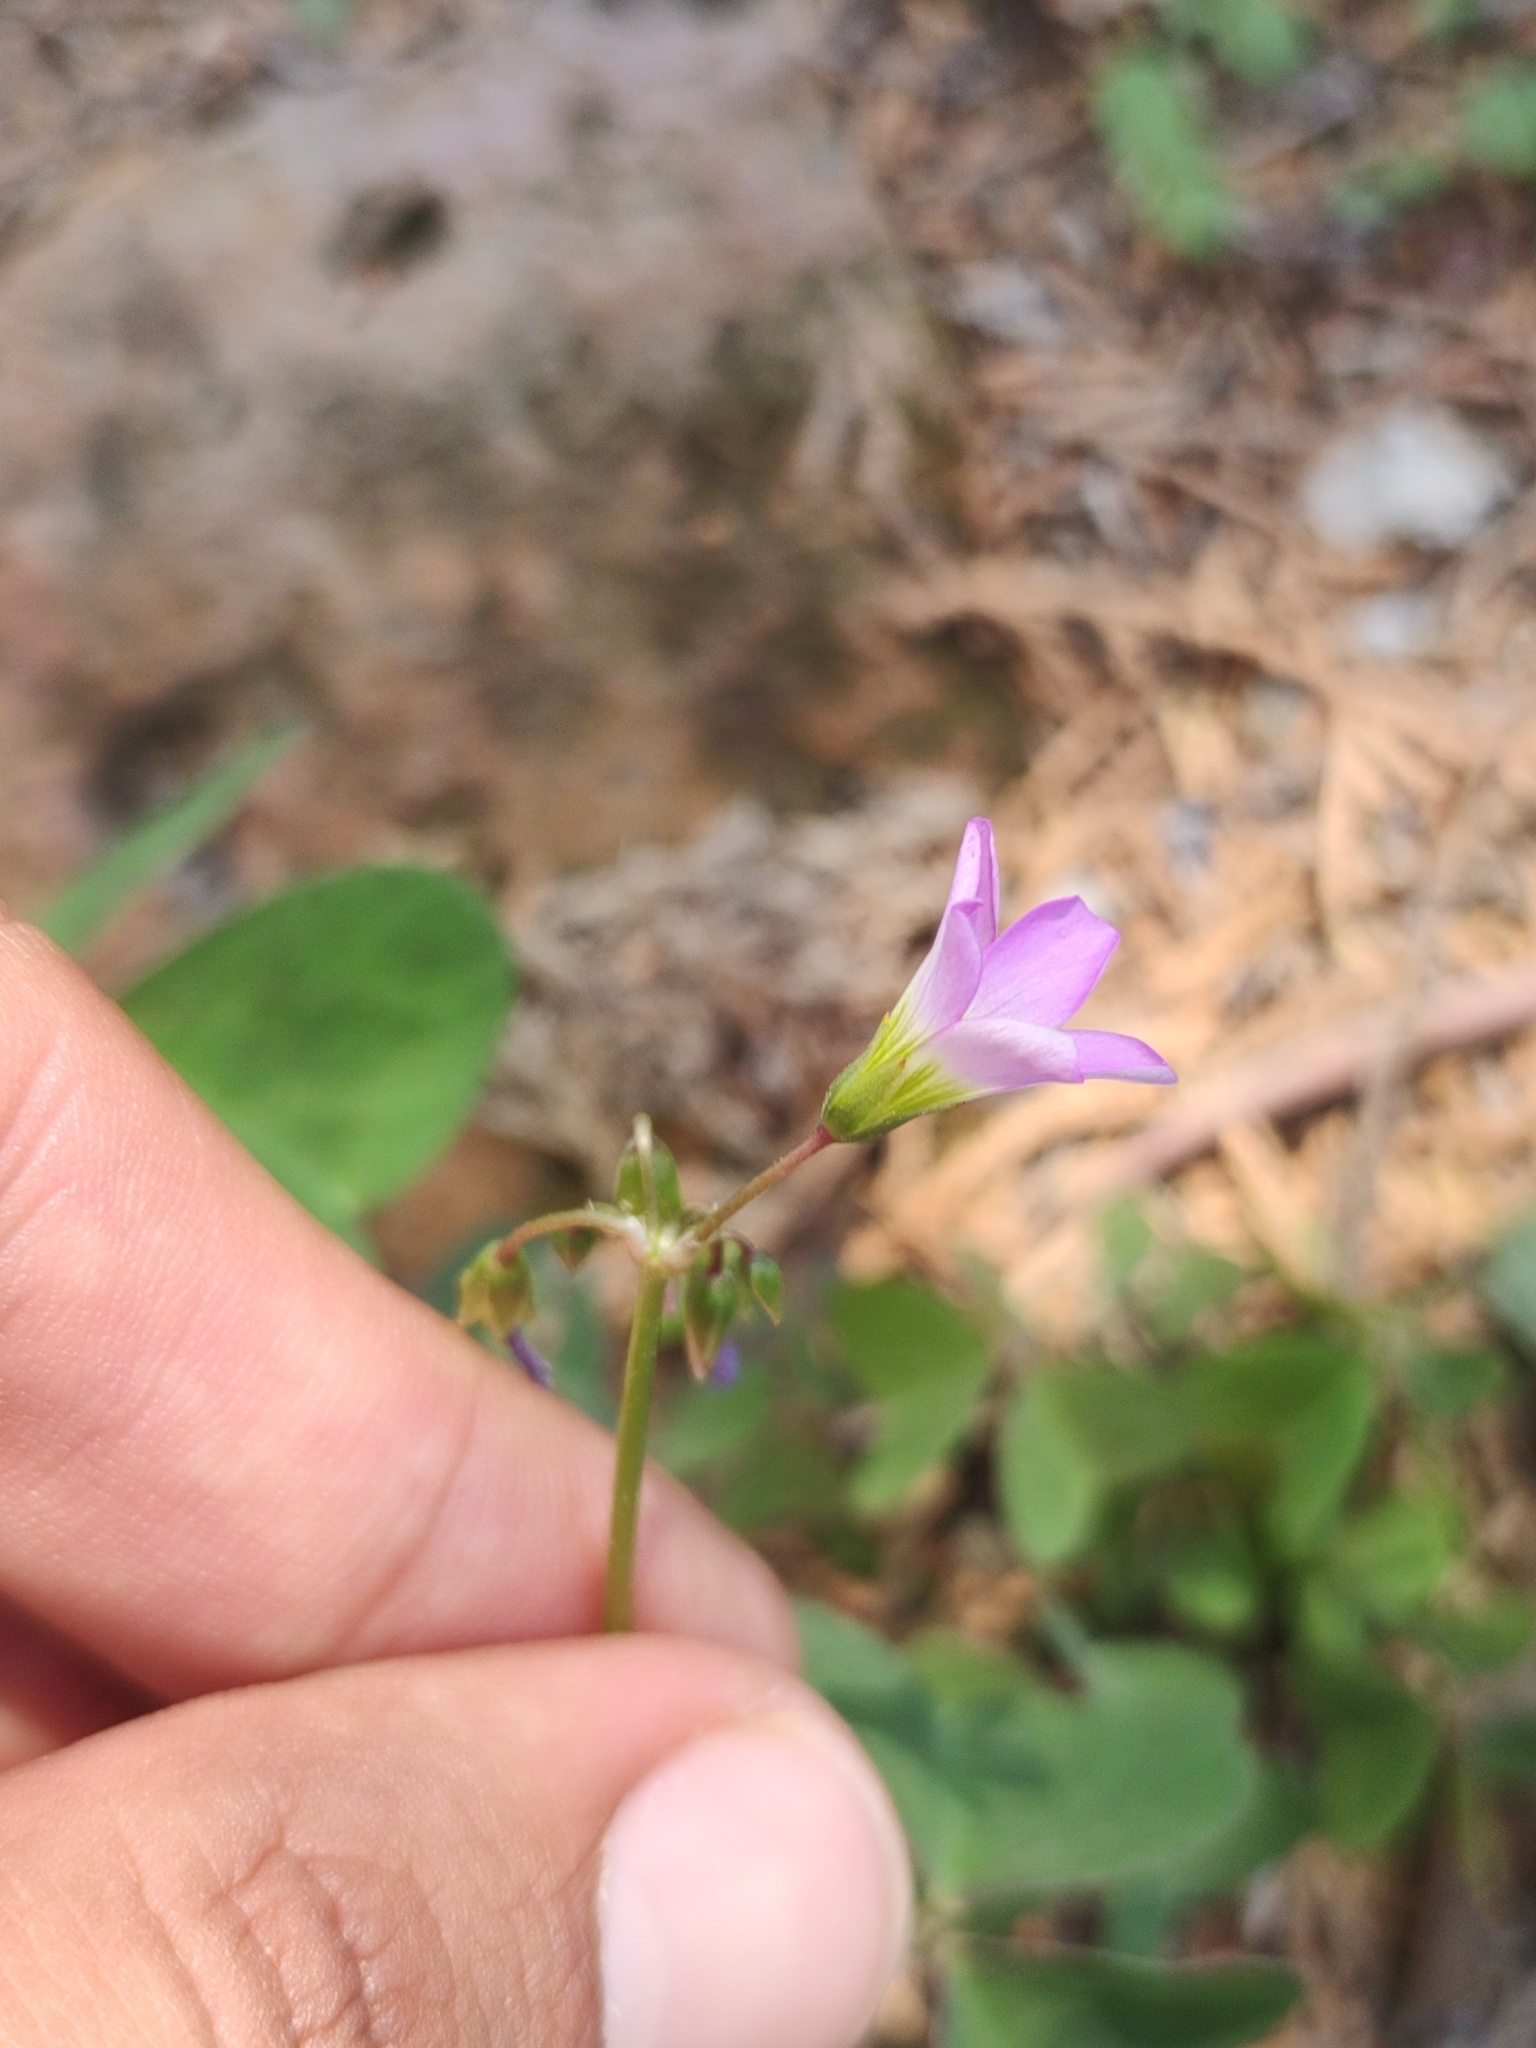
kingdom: Plantae
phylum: Tracheophyta
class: Magnoliopsida
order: Oxalidales
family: Oxalidaceae
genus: Oxalis
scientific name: Oxalis latifolia
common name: Garden pink-sorrel
